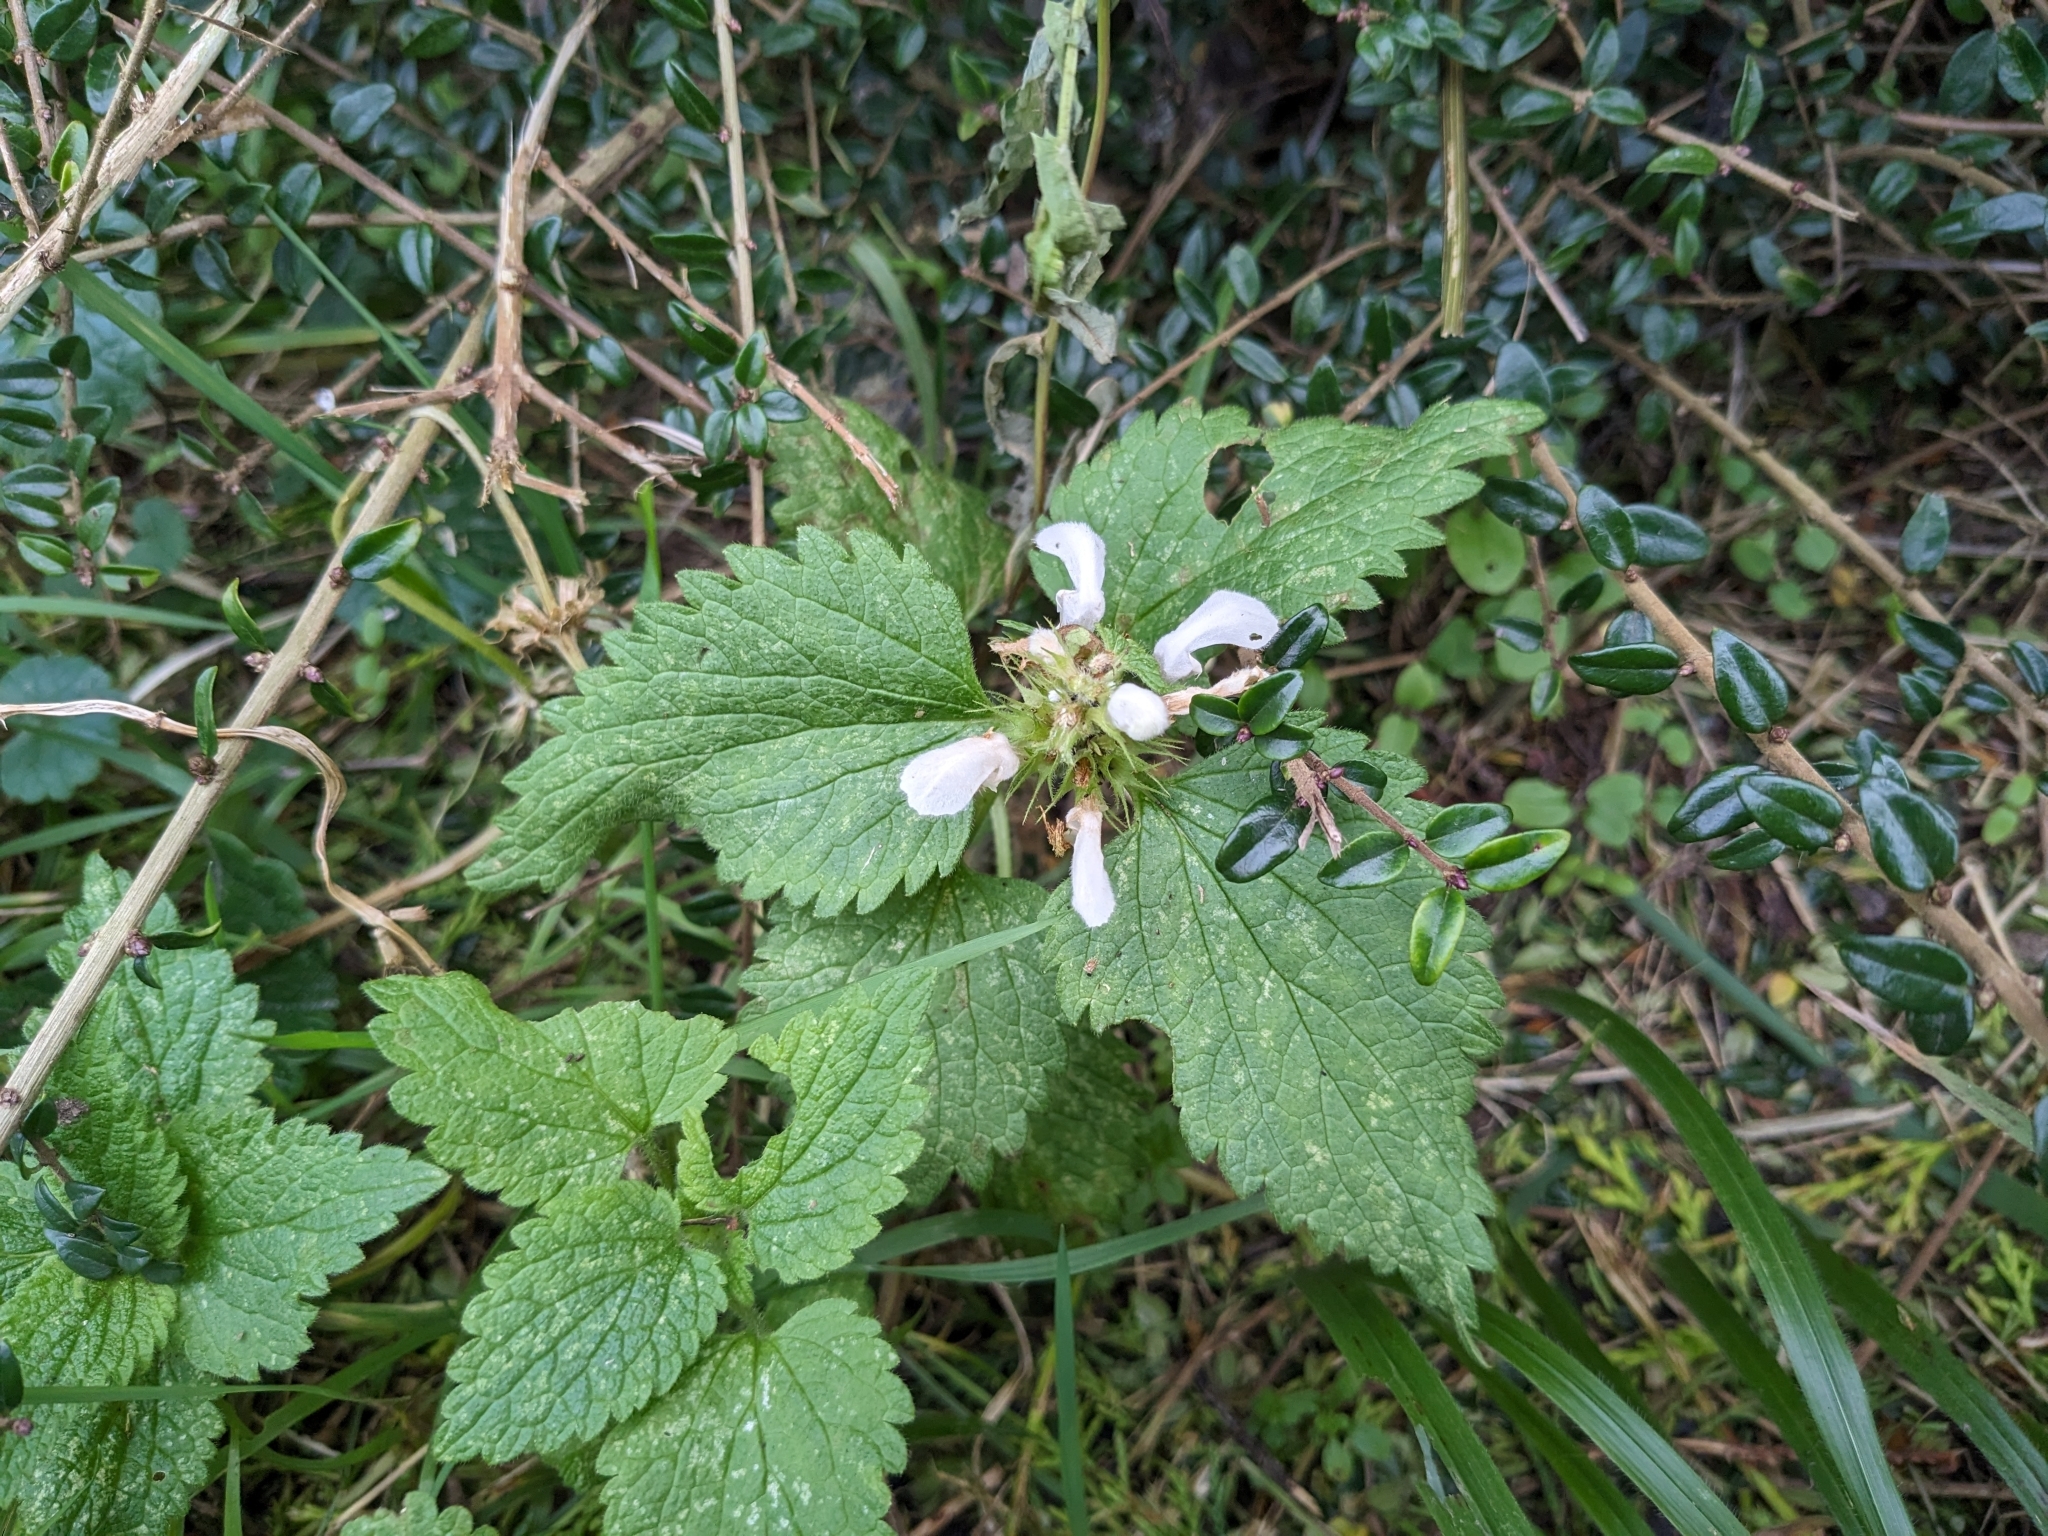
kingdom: Plantae
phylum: Tracheophyta
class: Magnoliopsida
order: Lamiales
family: Lamiaceae
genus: Lamium
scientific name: Lamium album
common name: White dead-nettle
